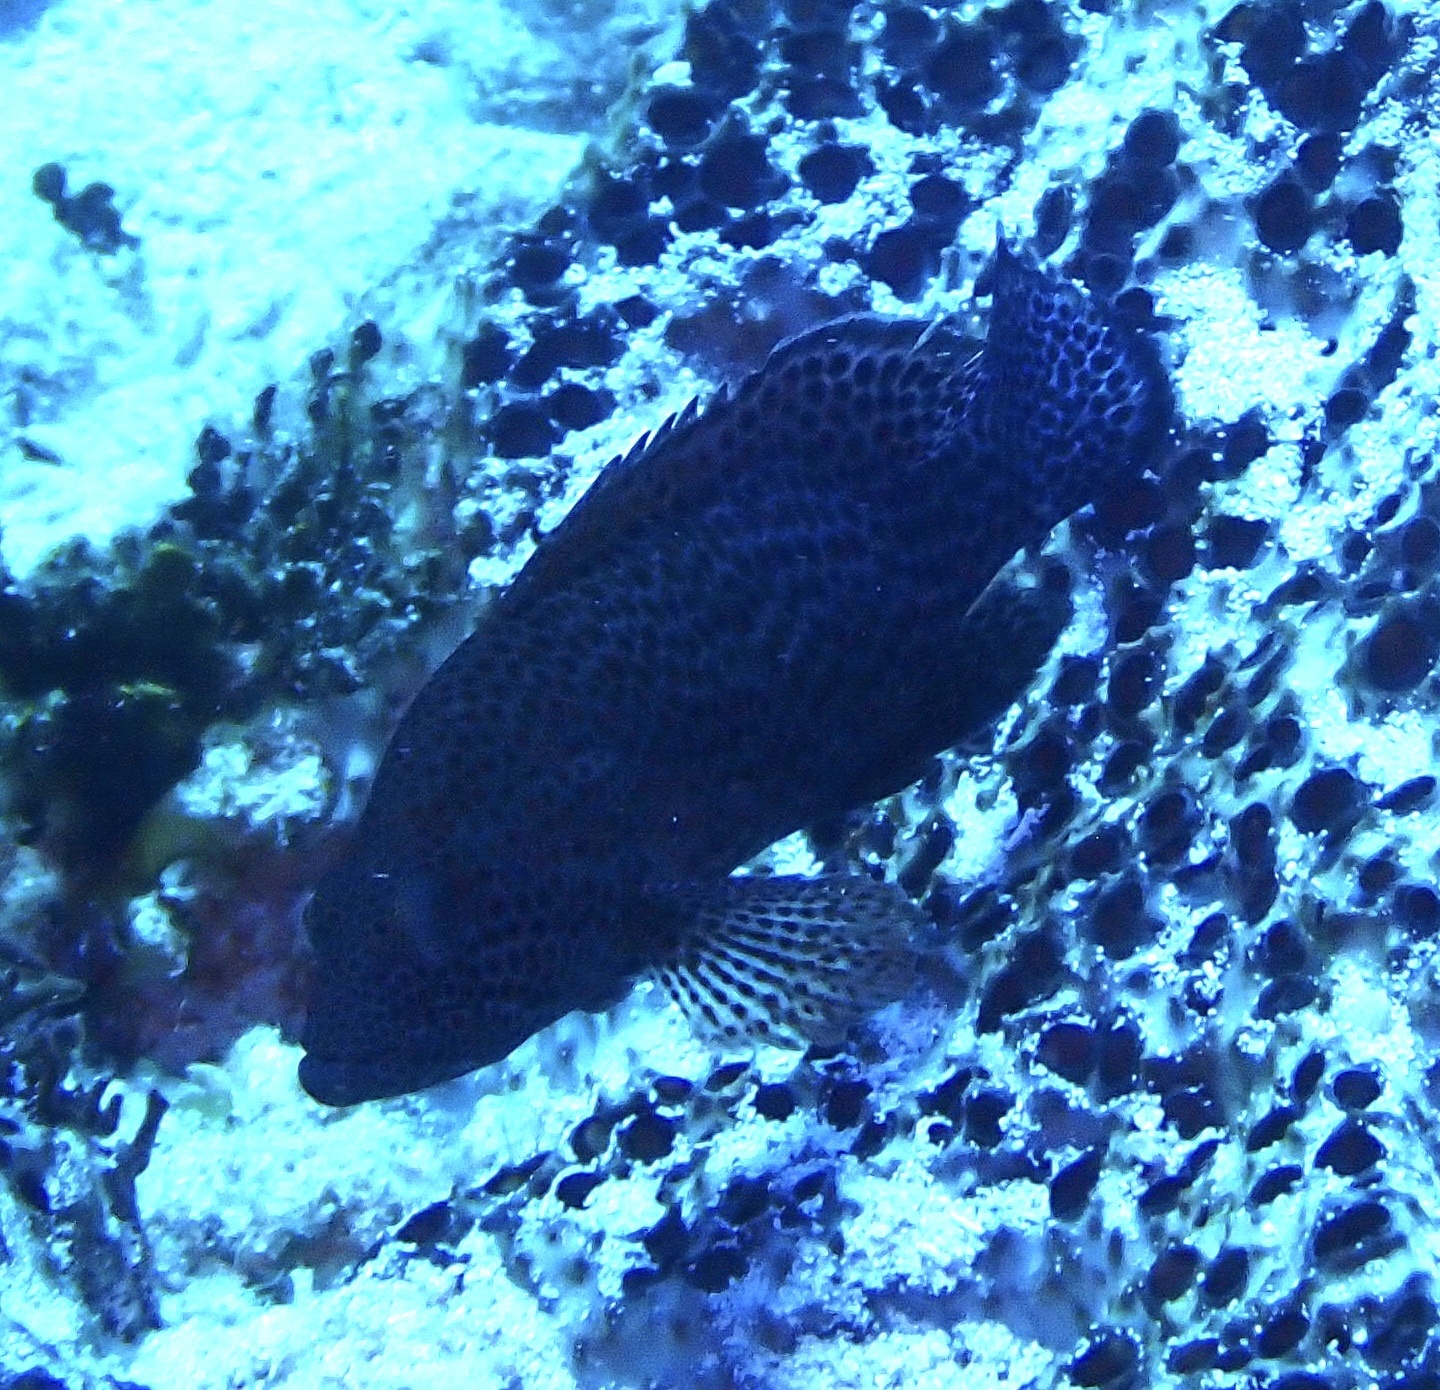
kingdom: Animalia
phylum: Chordata
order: Perciformes
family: Serranidae
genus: Cephalopholis
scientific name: Cephalopholis cruentata
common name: Graysby
